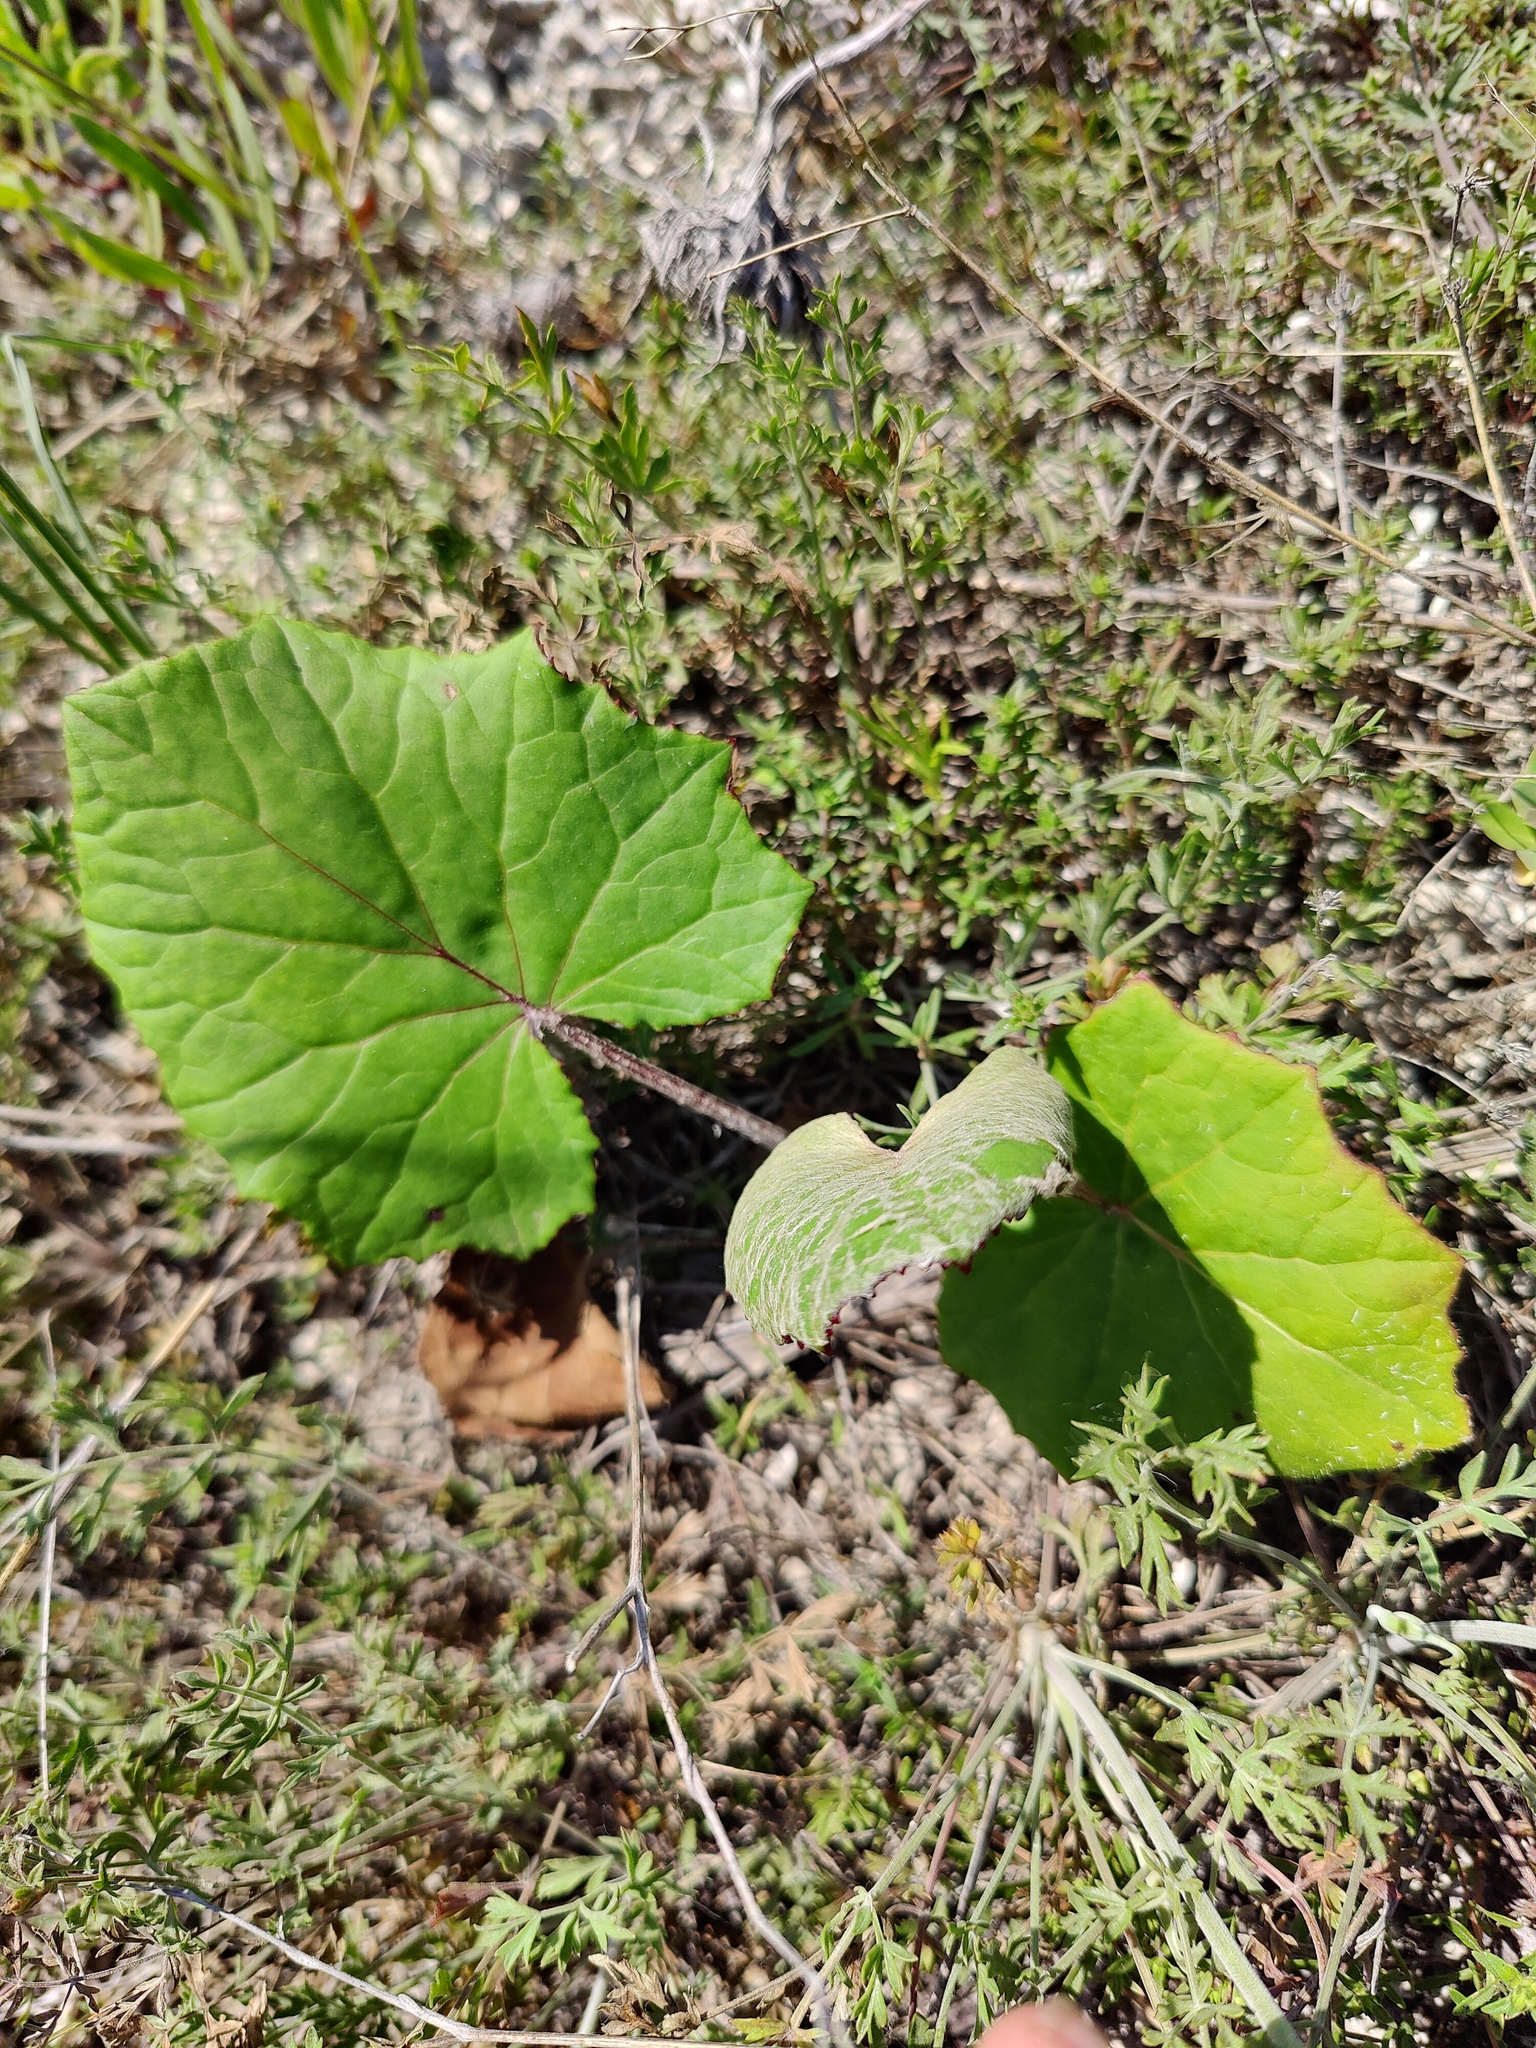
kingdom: Plantae
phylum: Tracheophyta
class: Magnoliopsida
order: Asterales
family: Asteraceae
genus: Tussilago
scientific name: Tussilago farfara
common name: Coltsfoot
